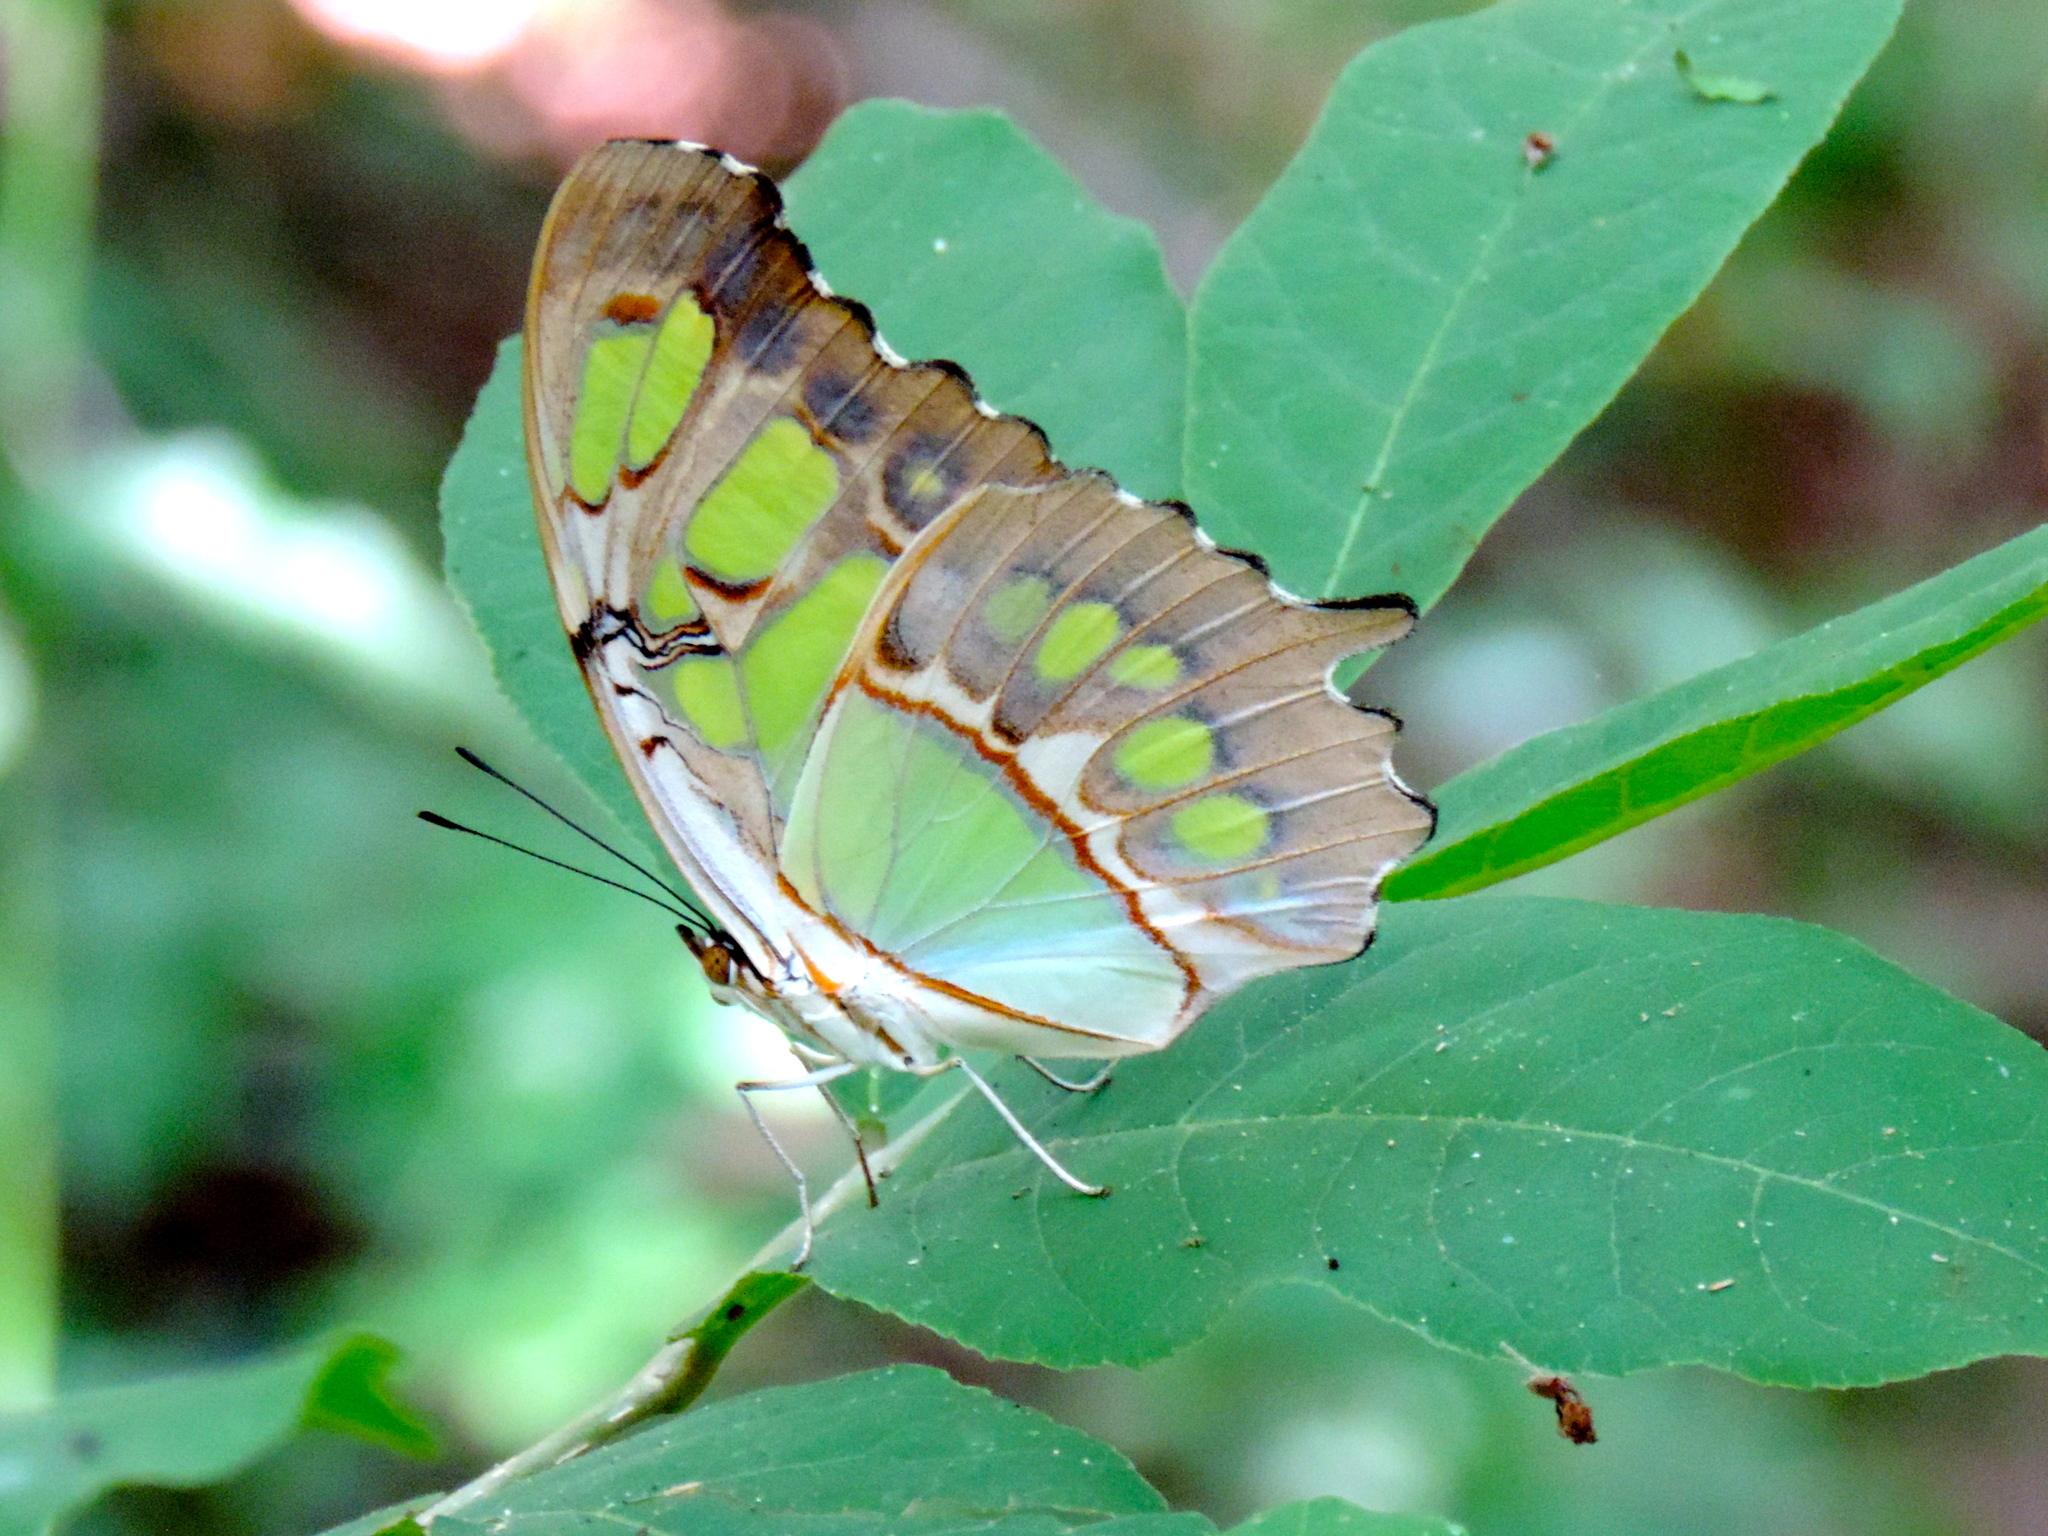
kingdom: Animalia
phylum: Arthropoda
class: Insecta
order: Lepidoptera
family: Nymphalidae
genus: Siproeta
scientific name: Siproeta stelenes
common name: Malachite
